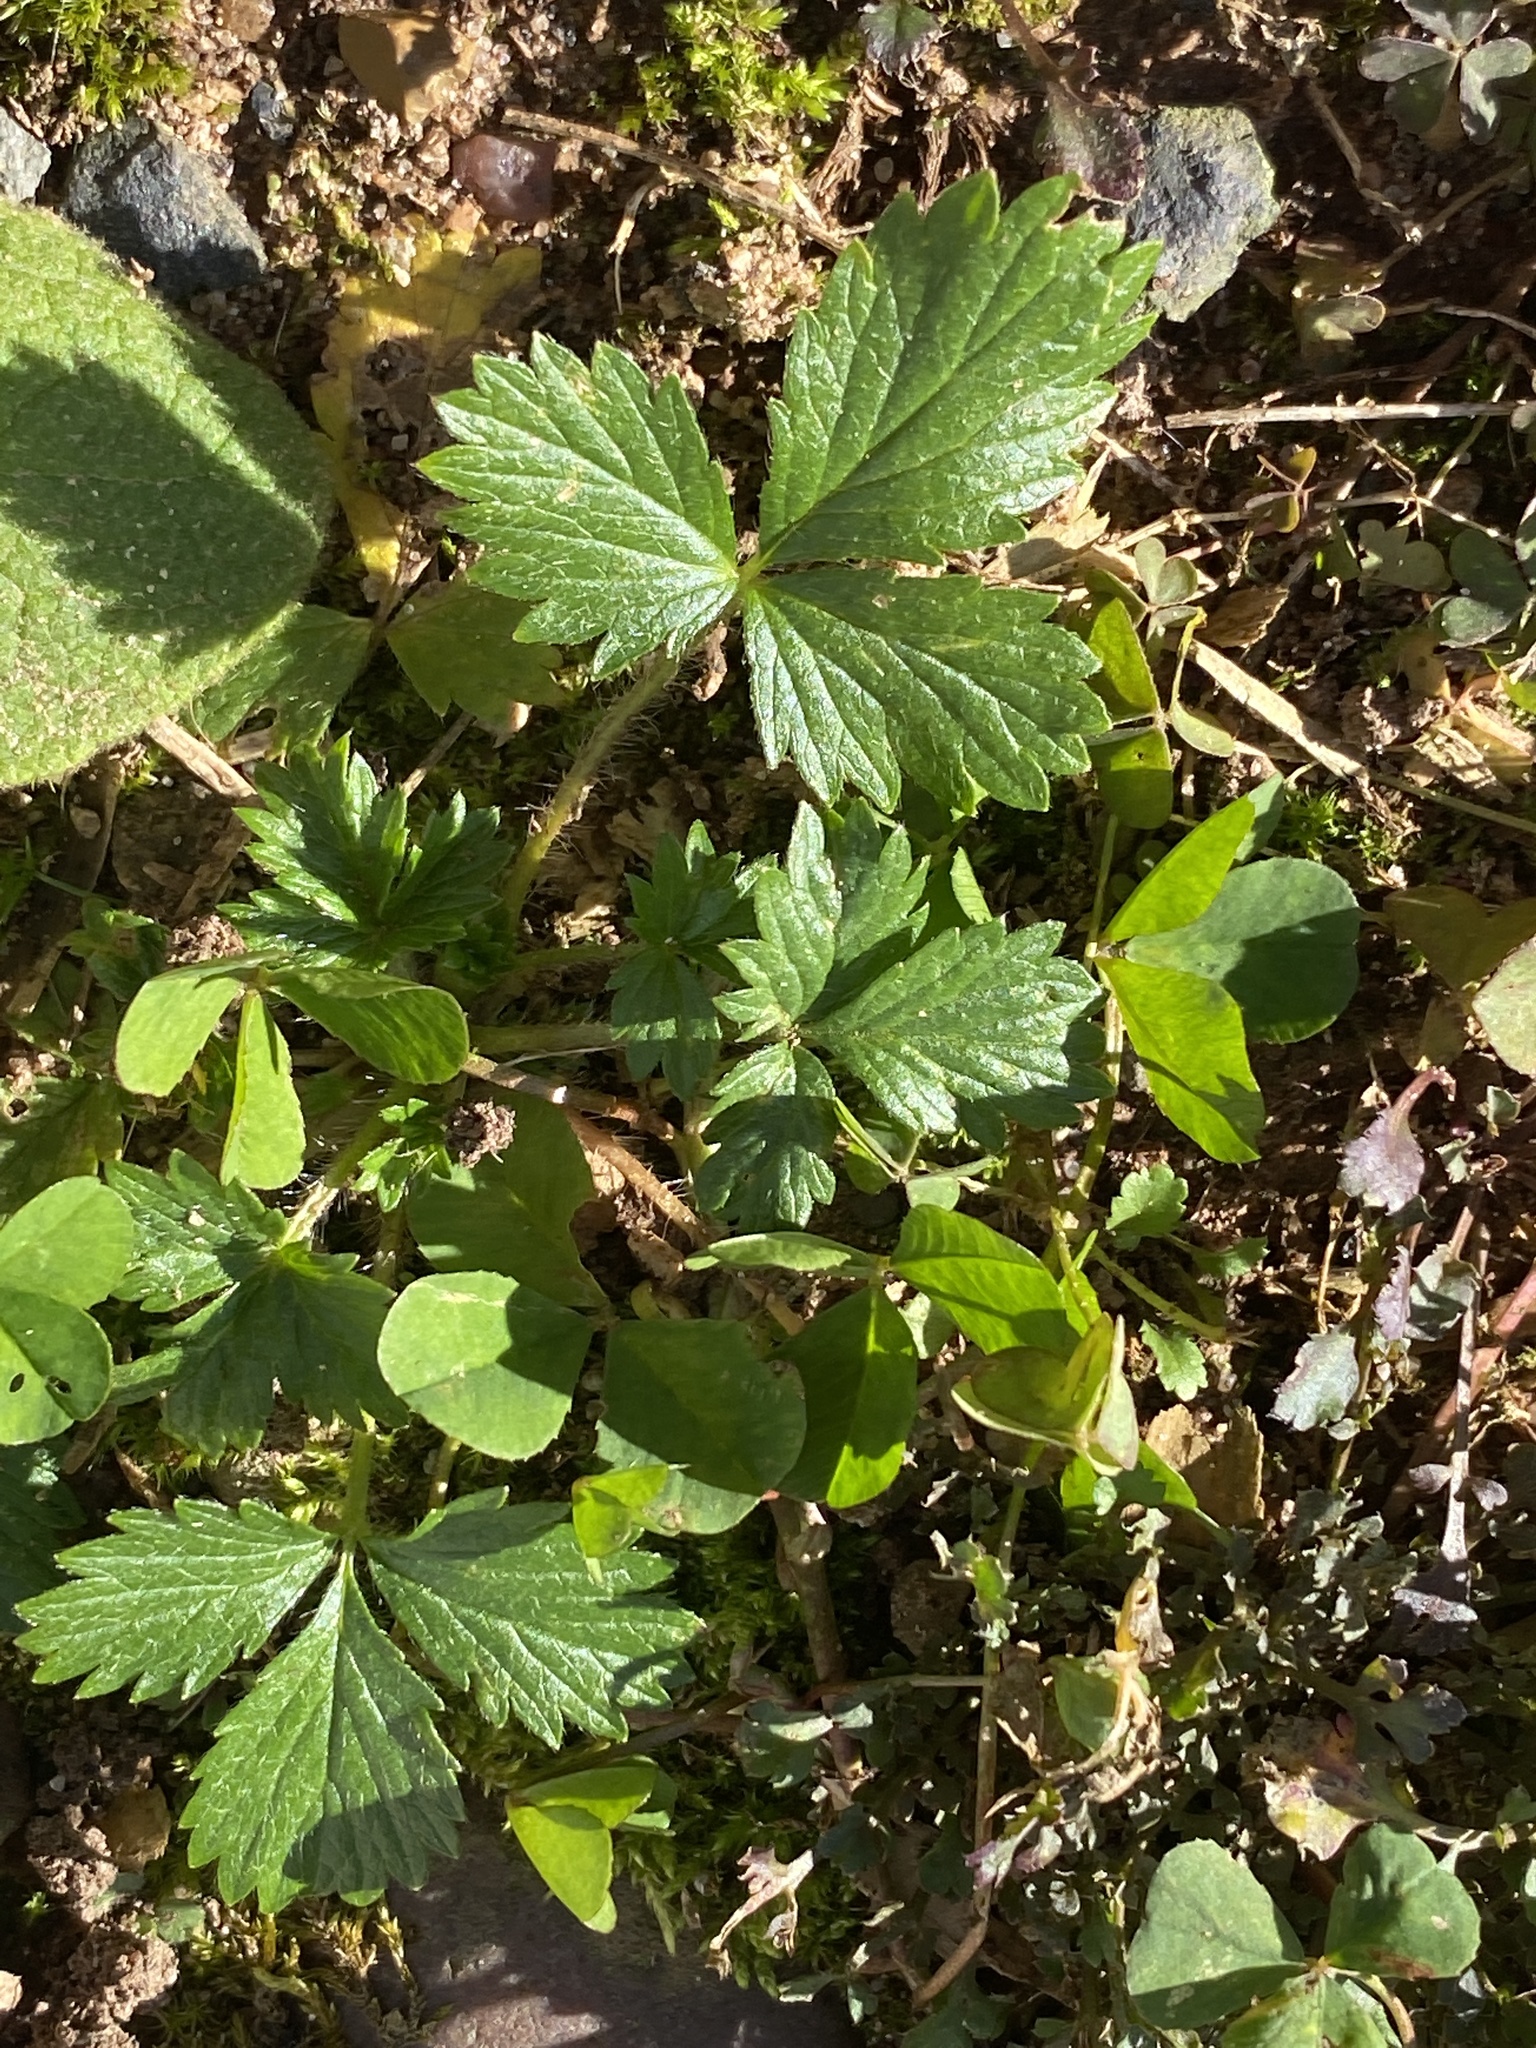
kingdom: Plantae
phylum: Tracheophyta
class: Magnoliopsida
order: Rosales
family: Rosaceae
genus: Potentilla
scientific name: Potentilla norvegica
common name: Ternate-leaved cinquefoil
